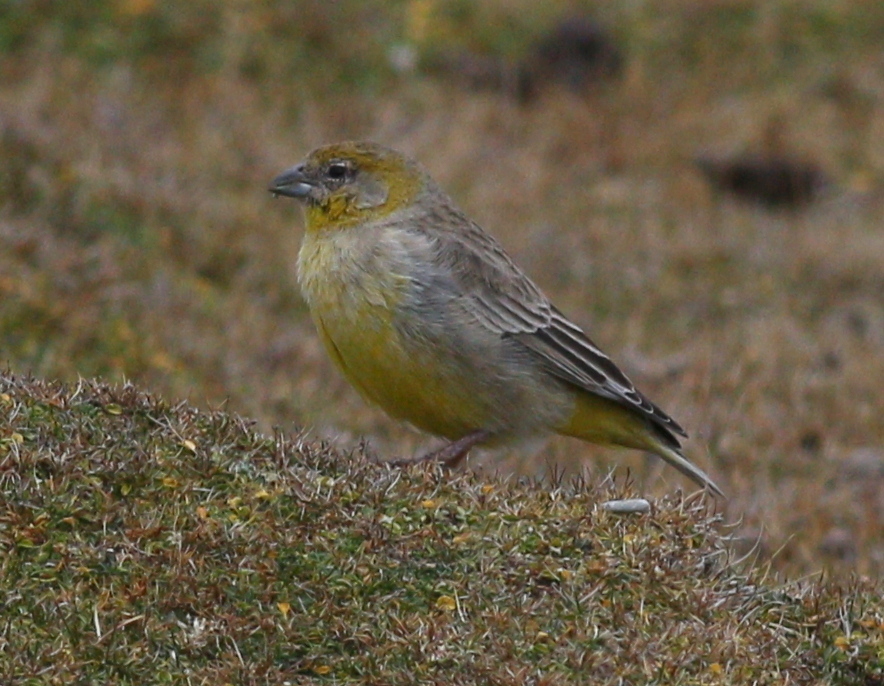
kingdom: Animalia
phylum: Chordata
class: Aves
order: Passeriformes
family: Thraupidae
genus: Sicalis
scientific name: Sicalis uropigyalis
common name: Bright-rumped yellow finch
